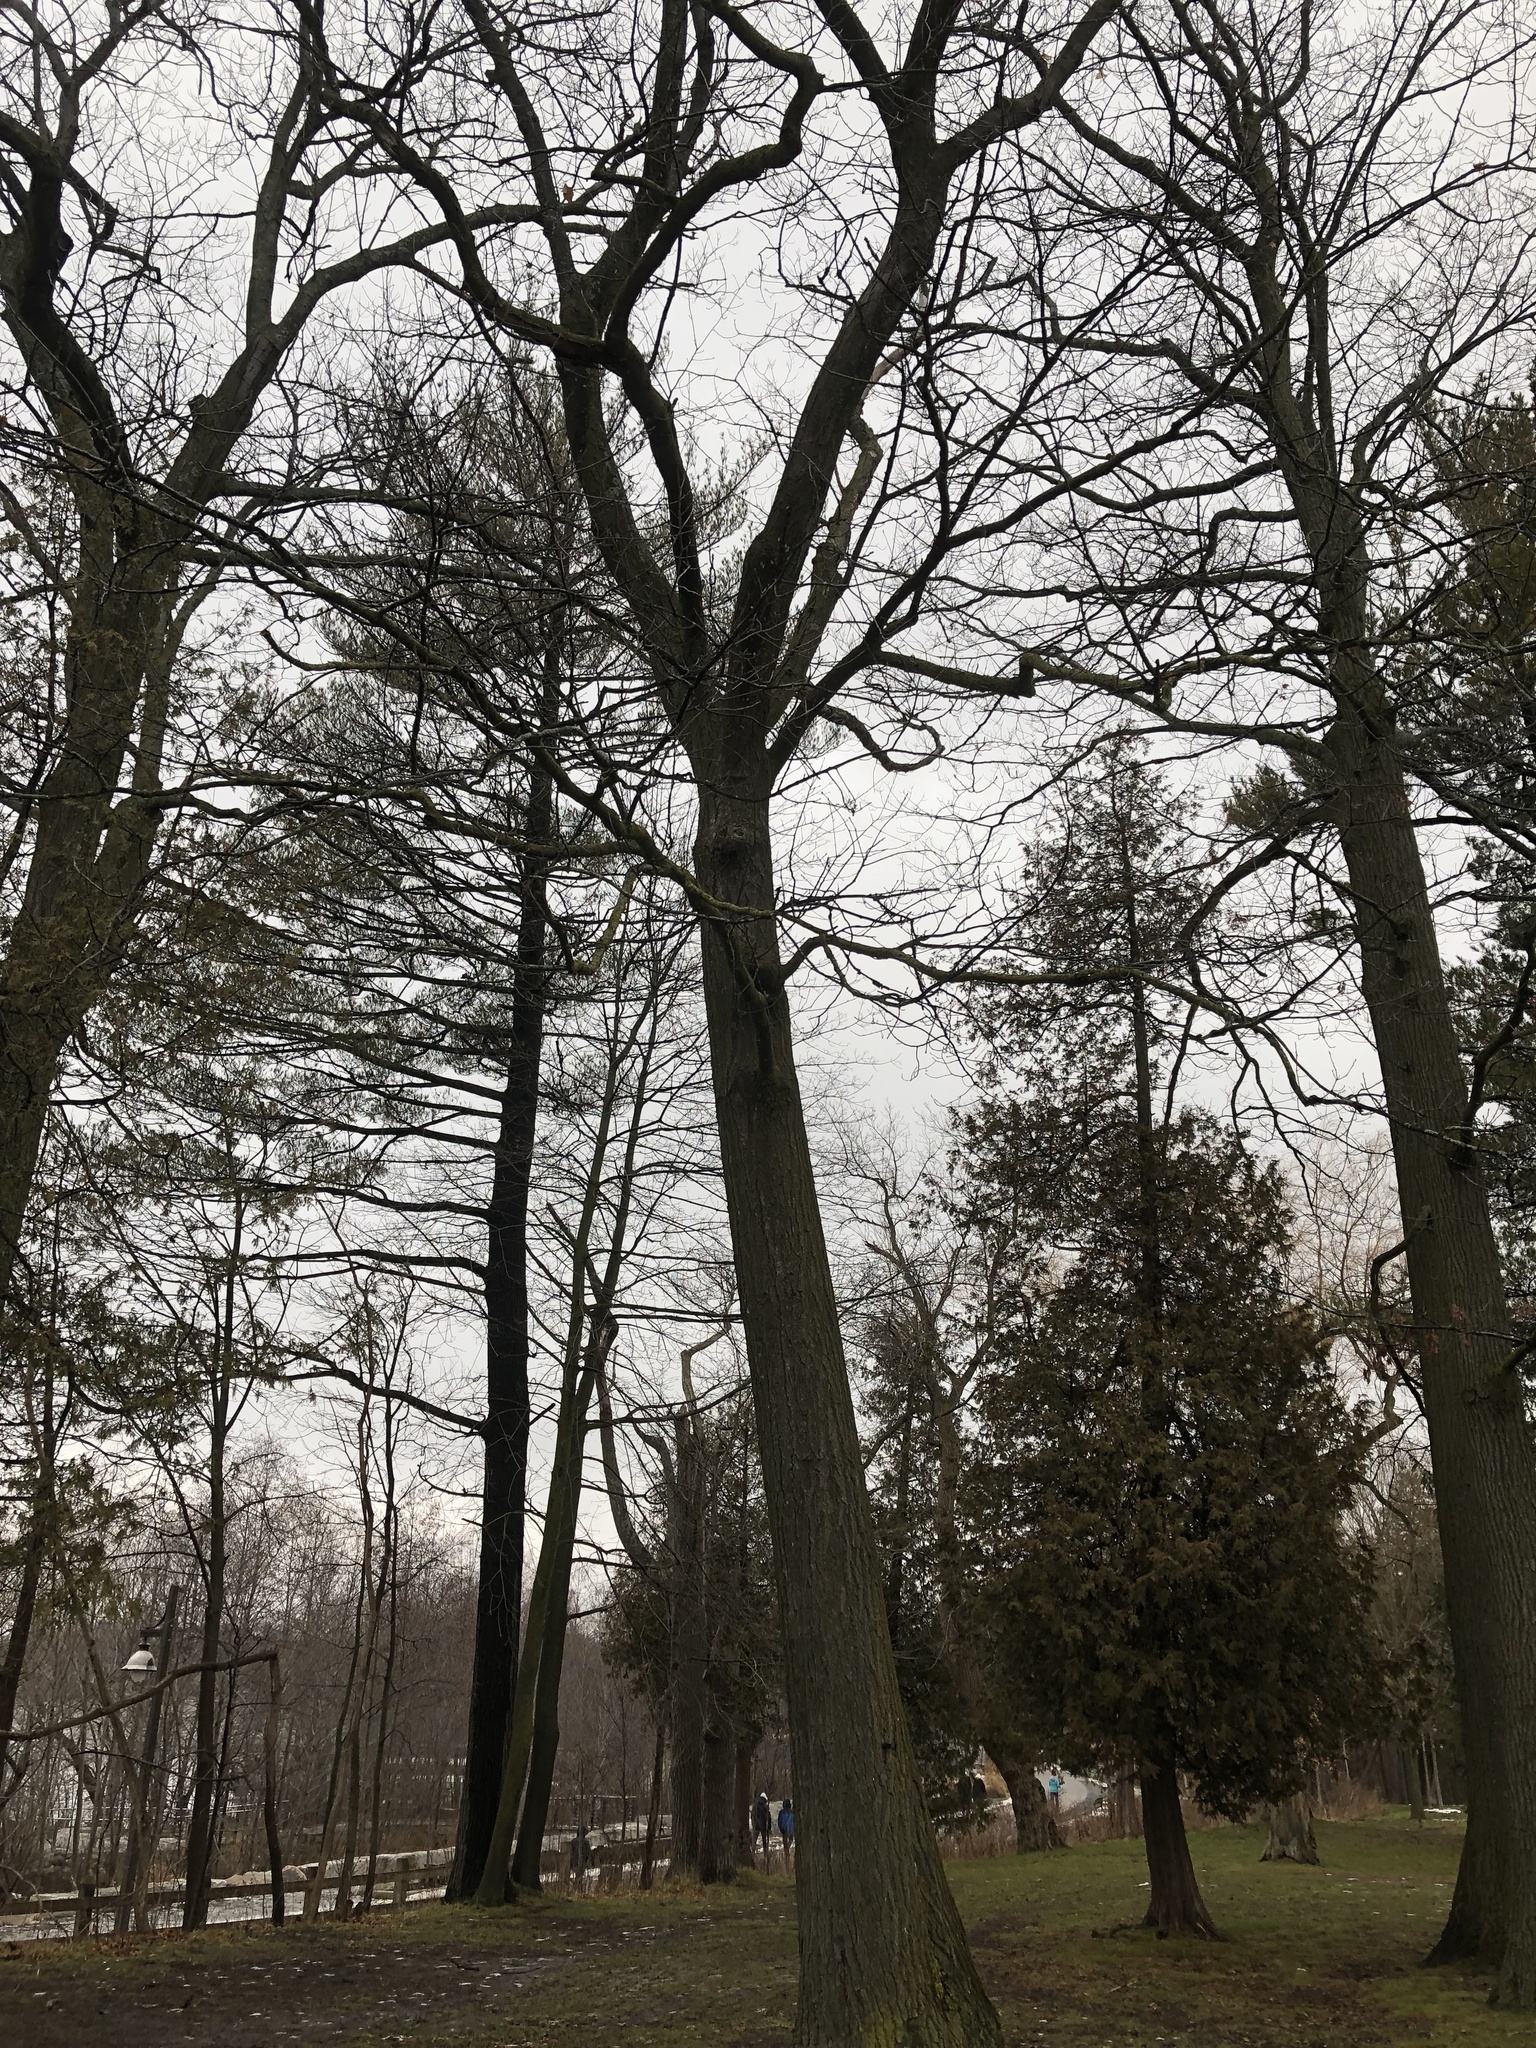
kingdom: Plantae
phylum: Tracheophyta
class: Magnoliopsida
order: Fagales
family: Fagaceae
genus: Quercus
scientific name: Quercus rubra
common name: Red oak
